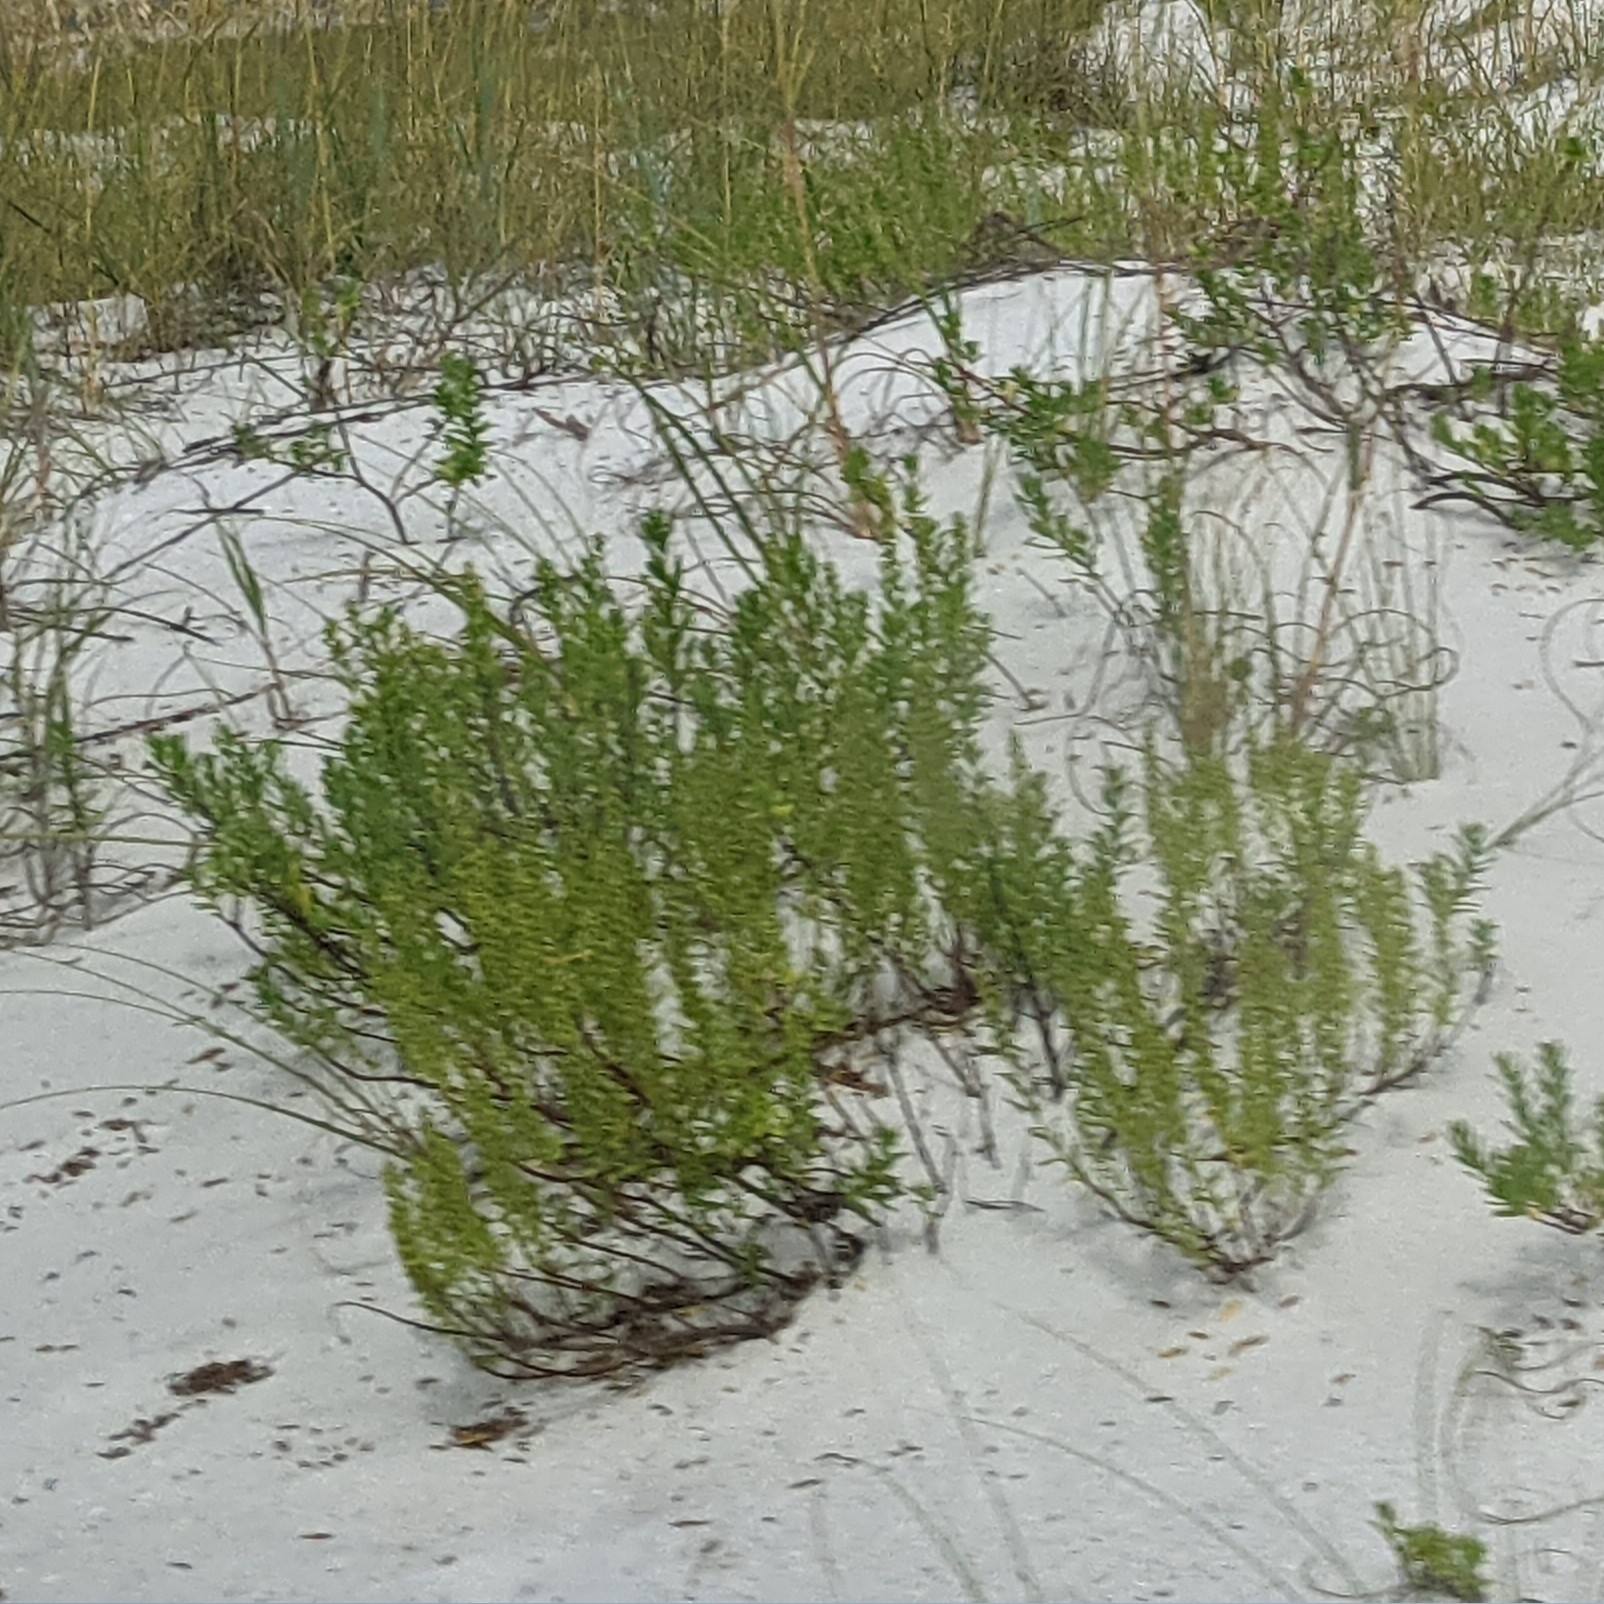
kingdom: Plantae
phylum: Tracheophyta
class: Magnoliopsida
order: Asterales
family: Asteraceae
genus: Iva
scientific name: Iva imbricata
